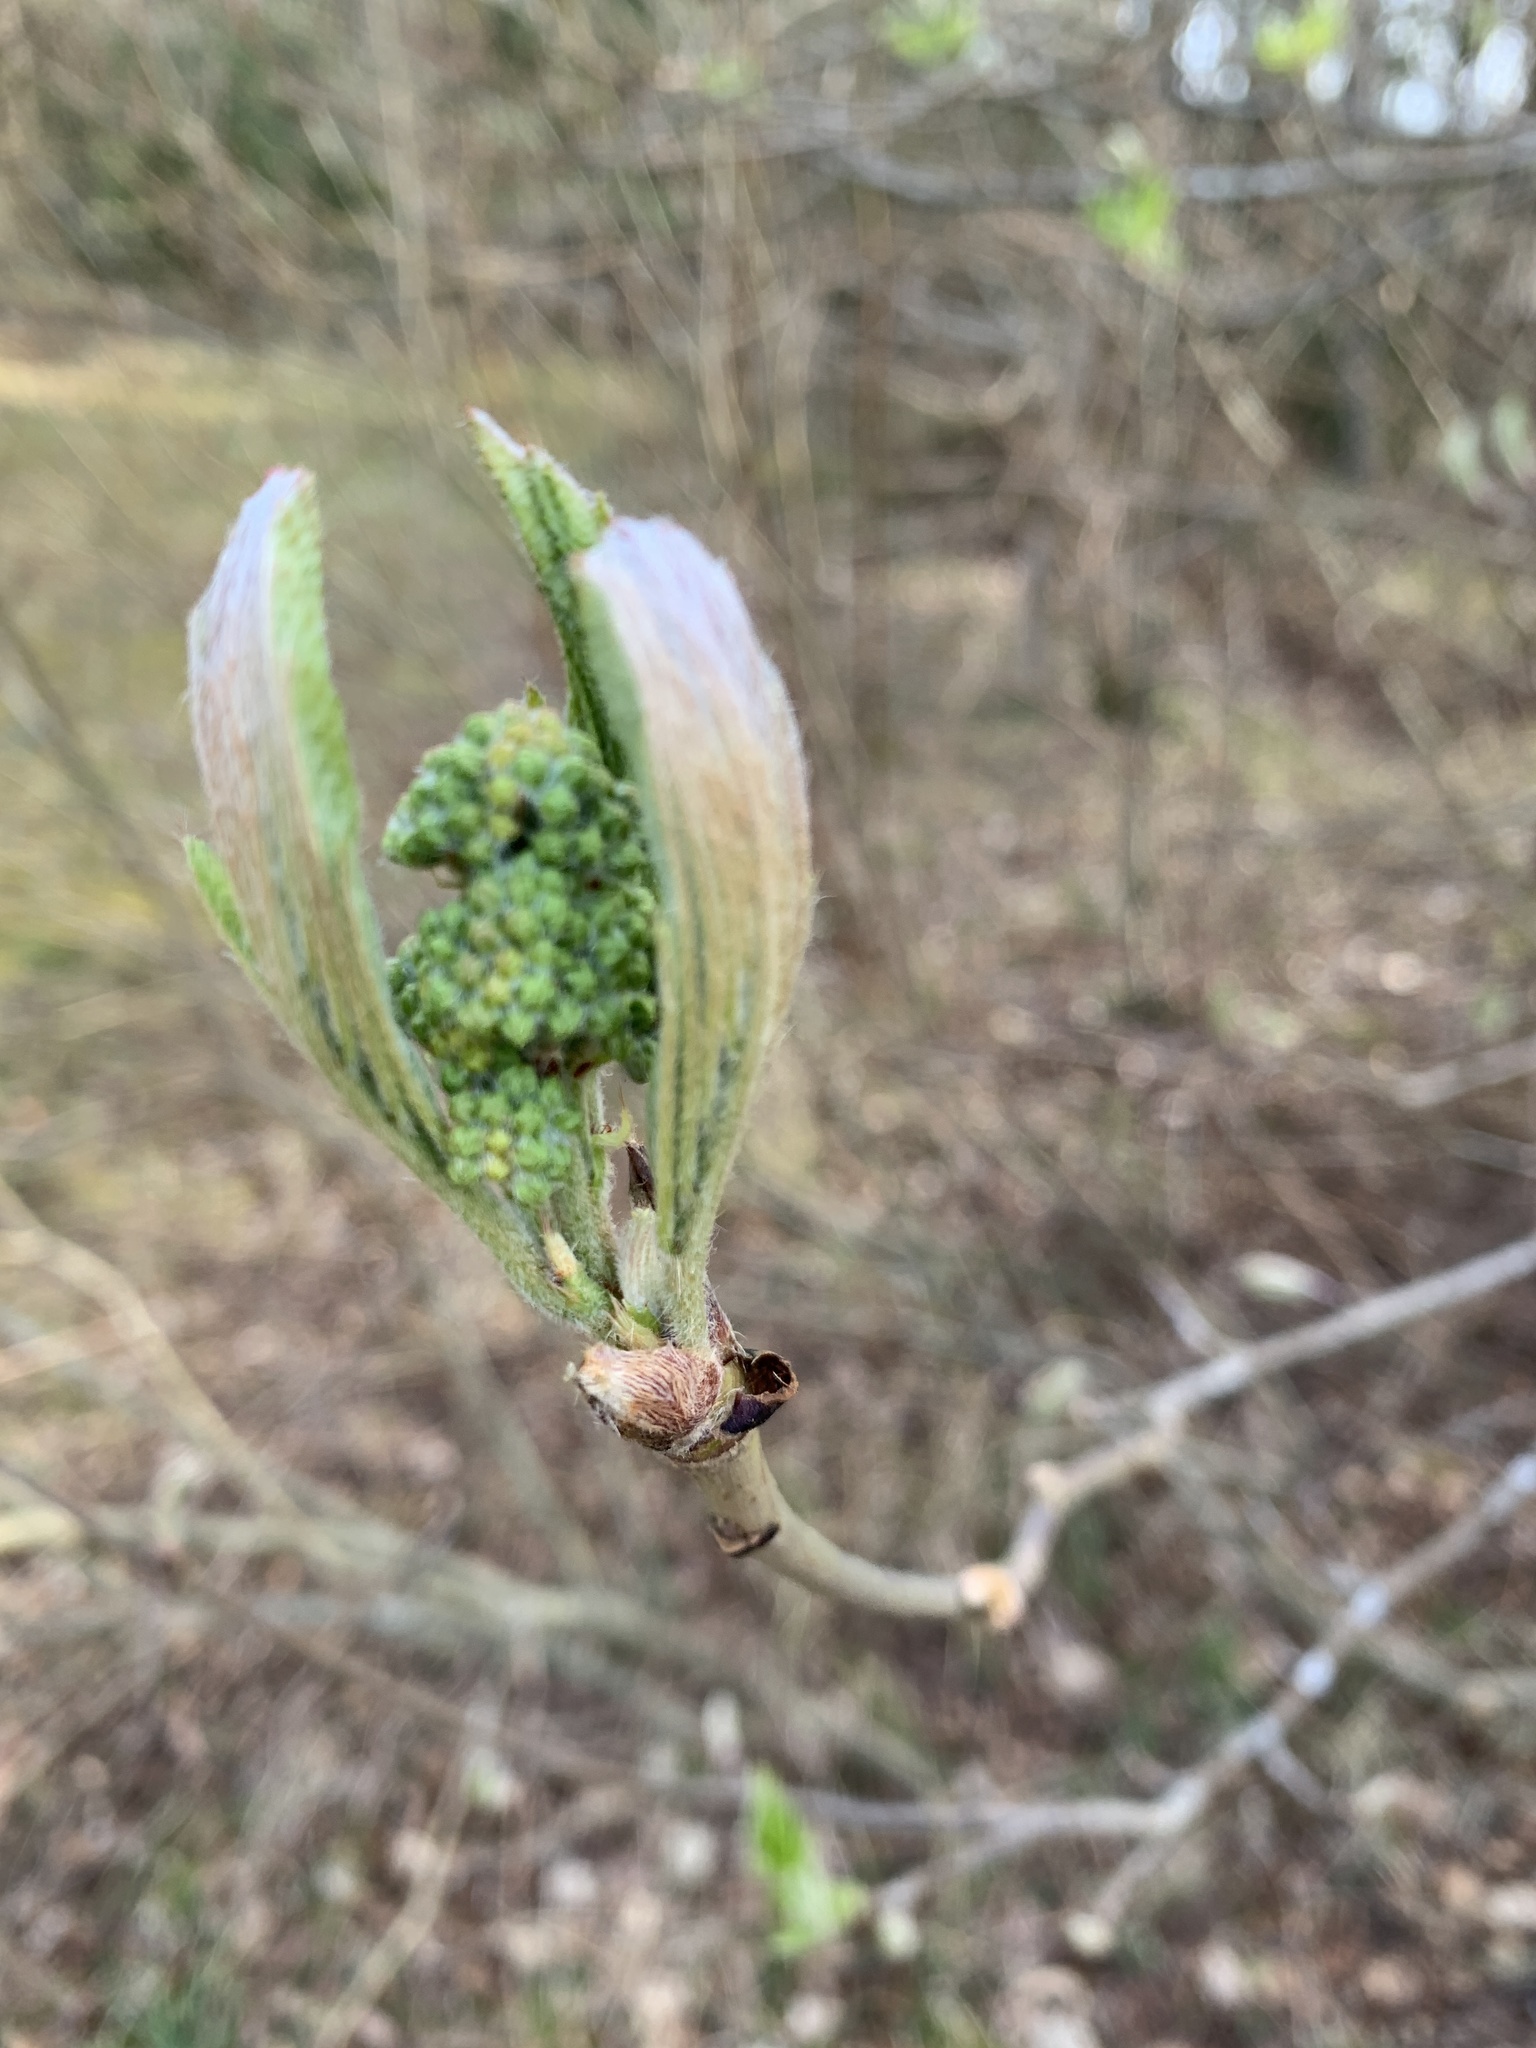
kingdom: Plantae
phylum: Tracheophyta
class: Magnoliopsida
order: Rosales
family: Rosaceae
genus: Sorbus
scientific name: Sorbus aucuparia
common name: Rowan
